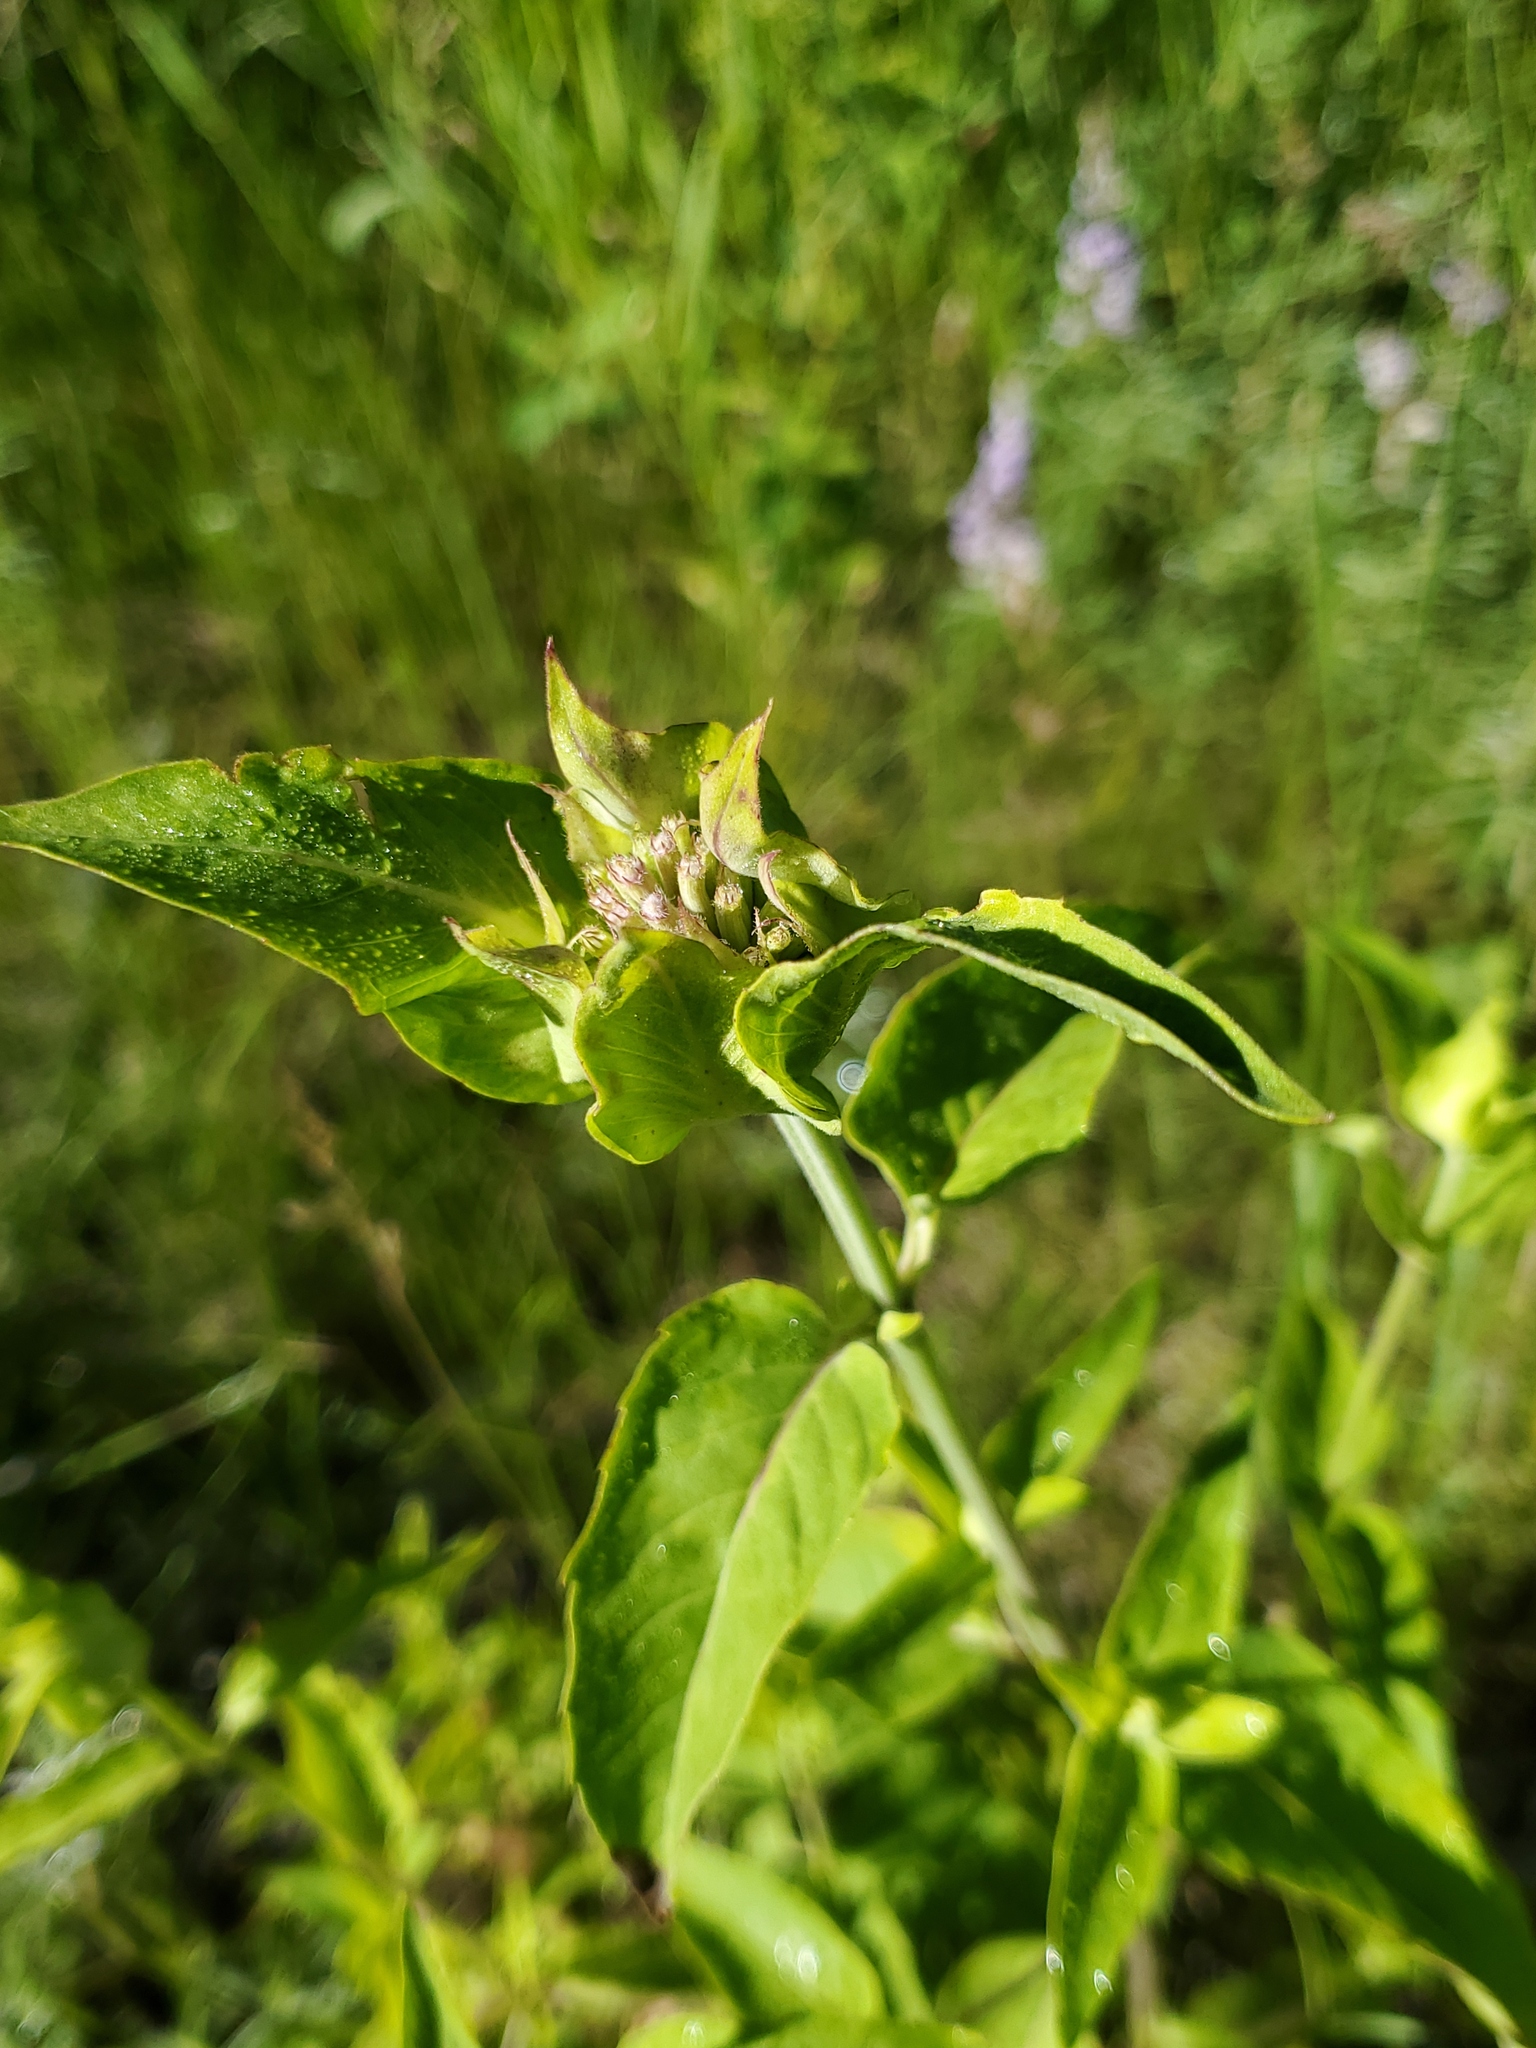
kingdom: Plantae
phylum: Tracheophyta
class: Magnoliopsida
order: Lamiales
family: Lamiaceae
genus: Monarda
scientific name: Monarda fistulosa
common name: Purple beebalm
